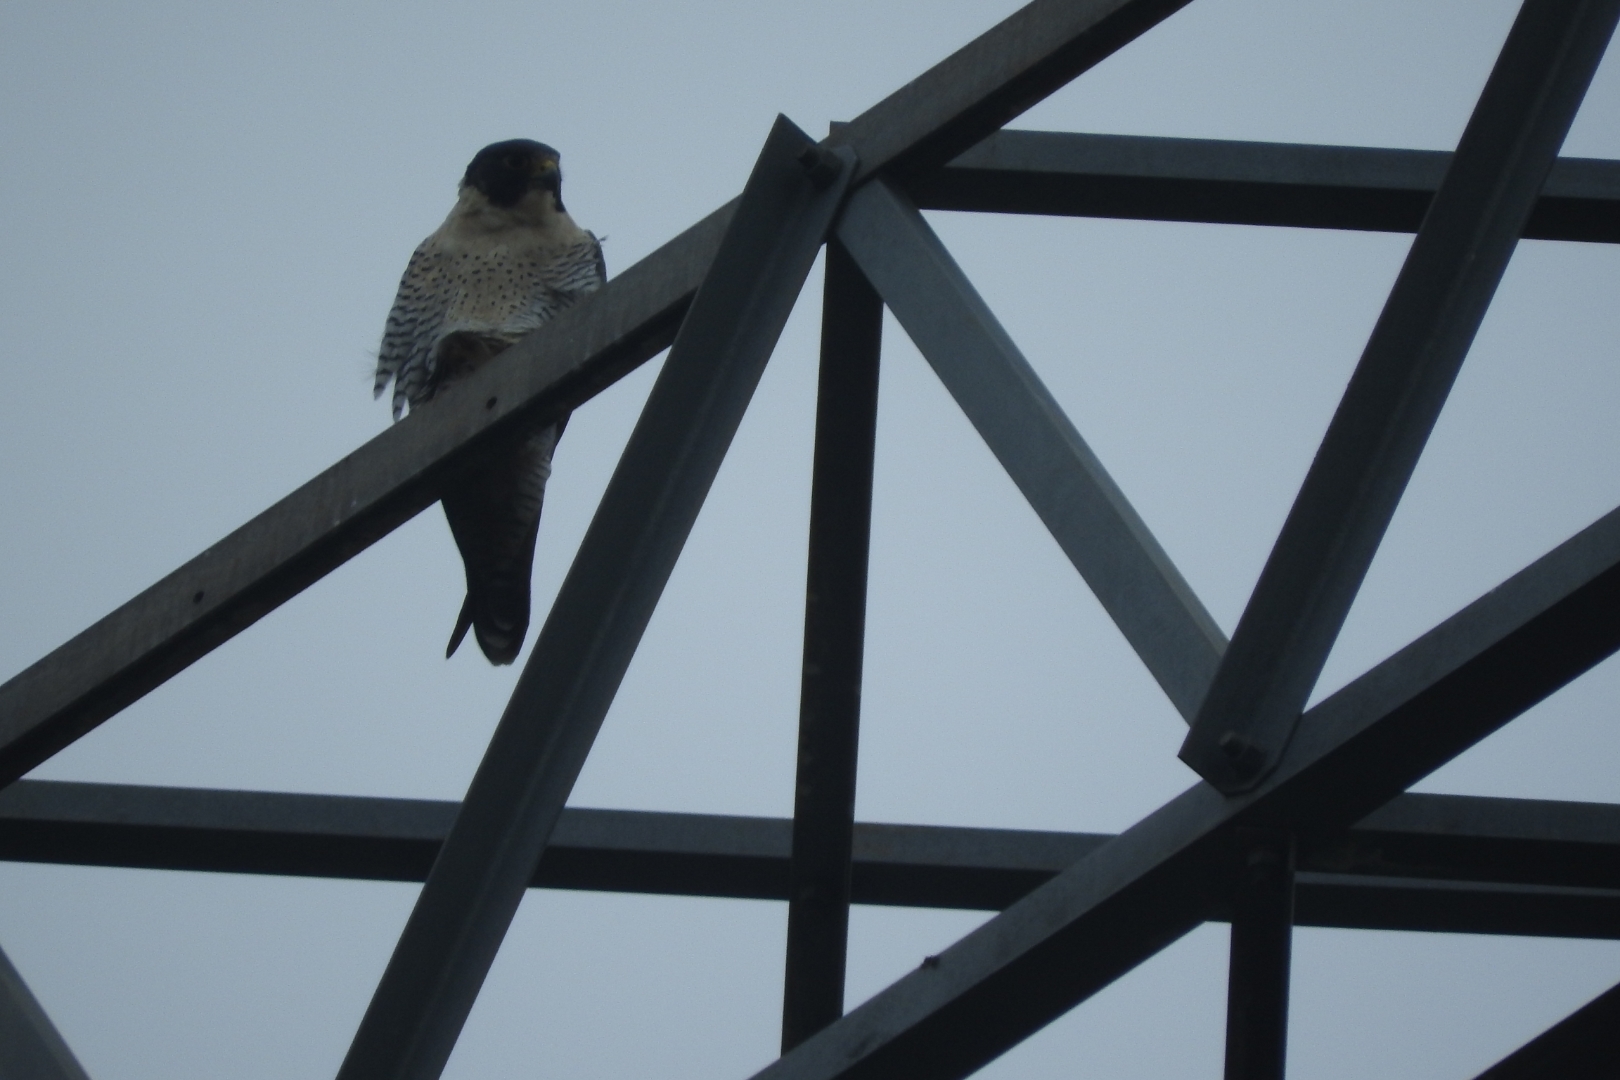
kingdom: Animalia
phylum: Chordata
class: Aves
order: Falconiformes
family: Falconidae
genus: Falco
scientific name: Falco peregrinus
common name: Peregrine falcon
